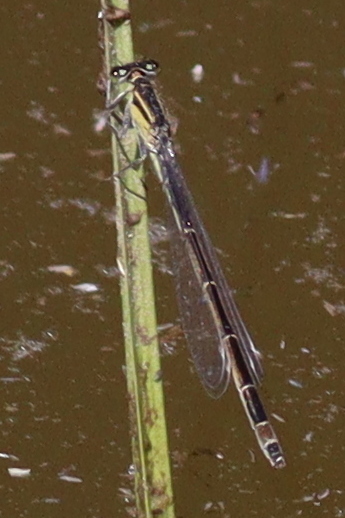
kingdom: Animalia
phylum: Arthropoda
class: Insecta
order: Odonata
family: Coenagrionidae
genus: Ischnura
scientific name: Ischnura elegans
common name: Blue-tailed damselfly
